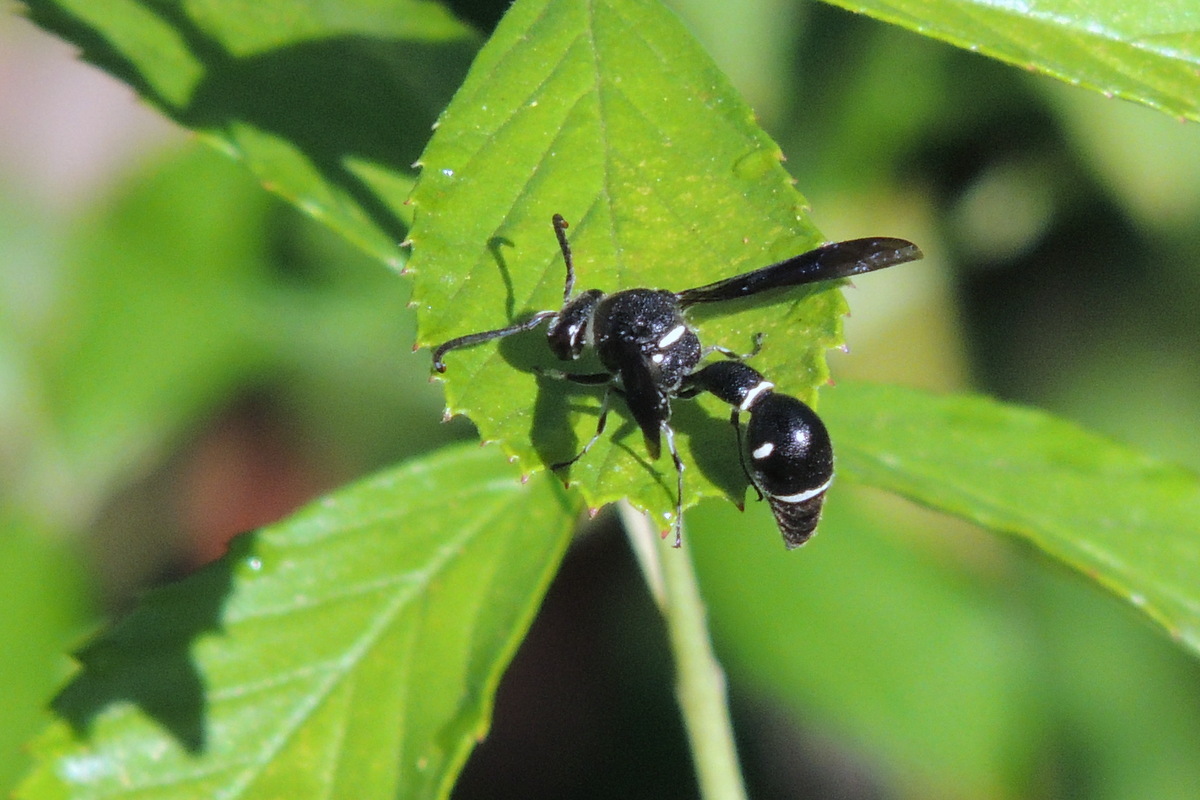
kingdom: Animalia
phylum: Arthropoda
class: Insecta
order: Hymenoptera
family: Vespidae
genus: Eumenes
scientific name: Eumenes fraternus
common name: Fraternal potter wasp
